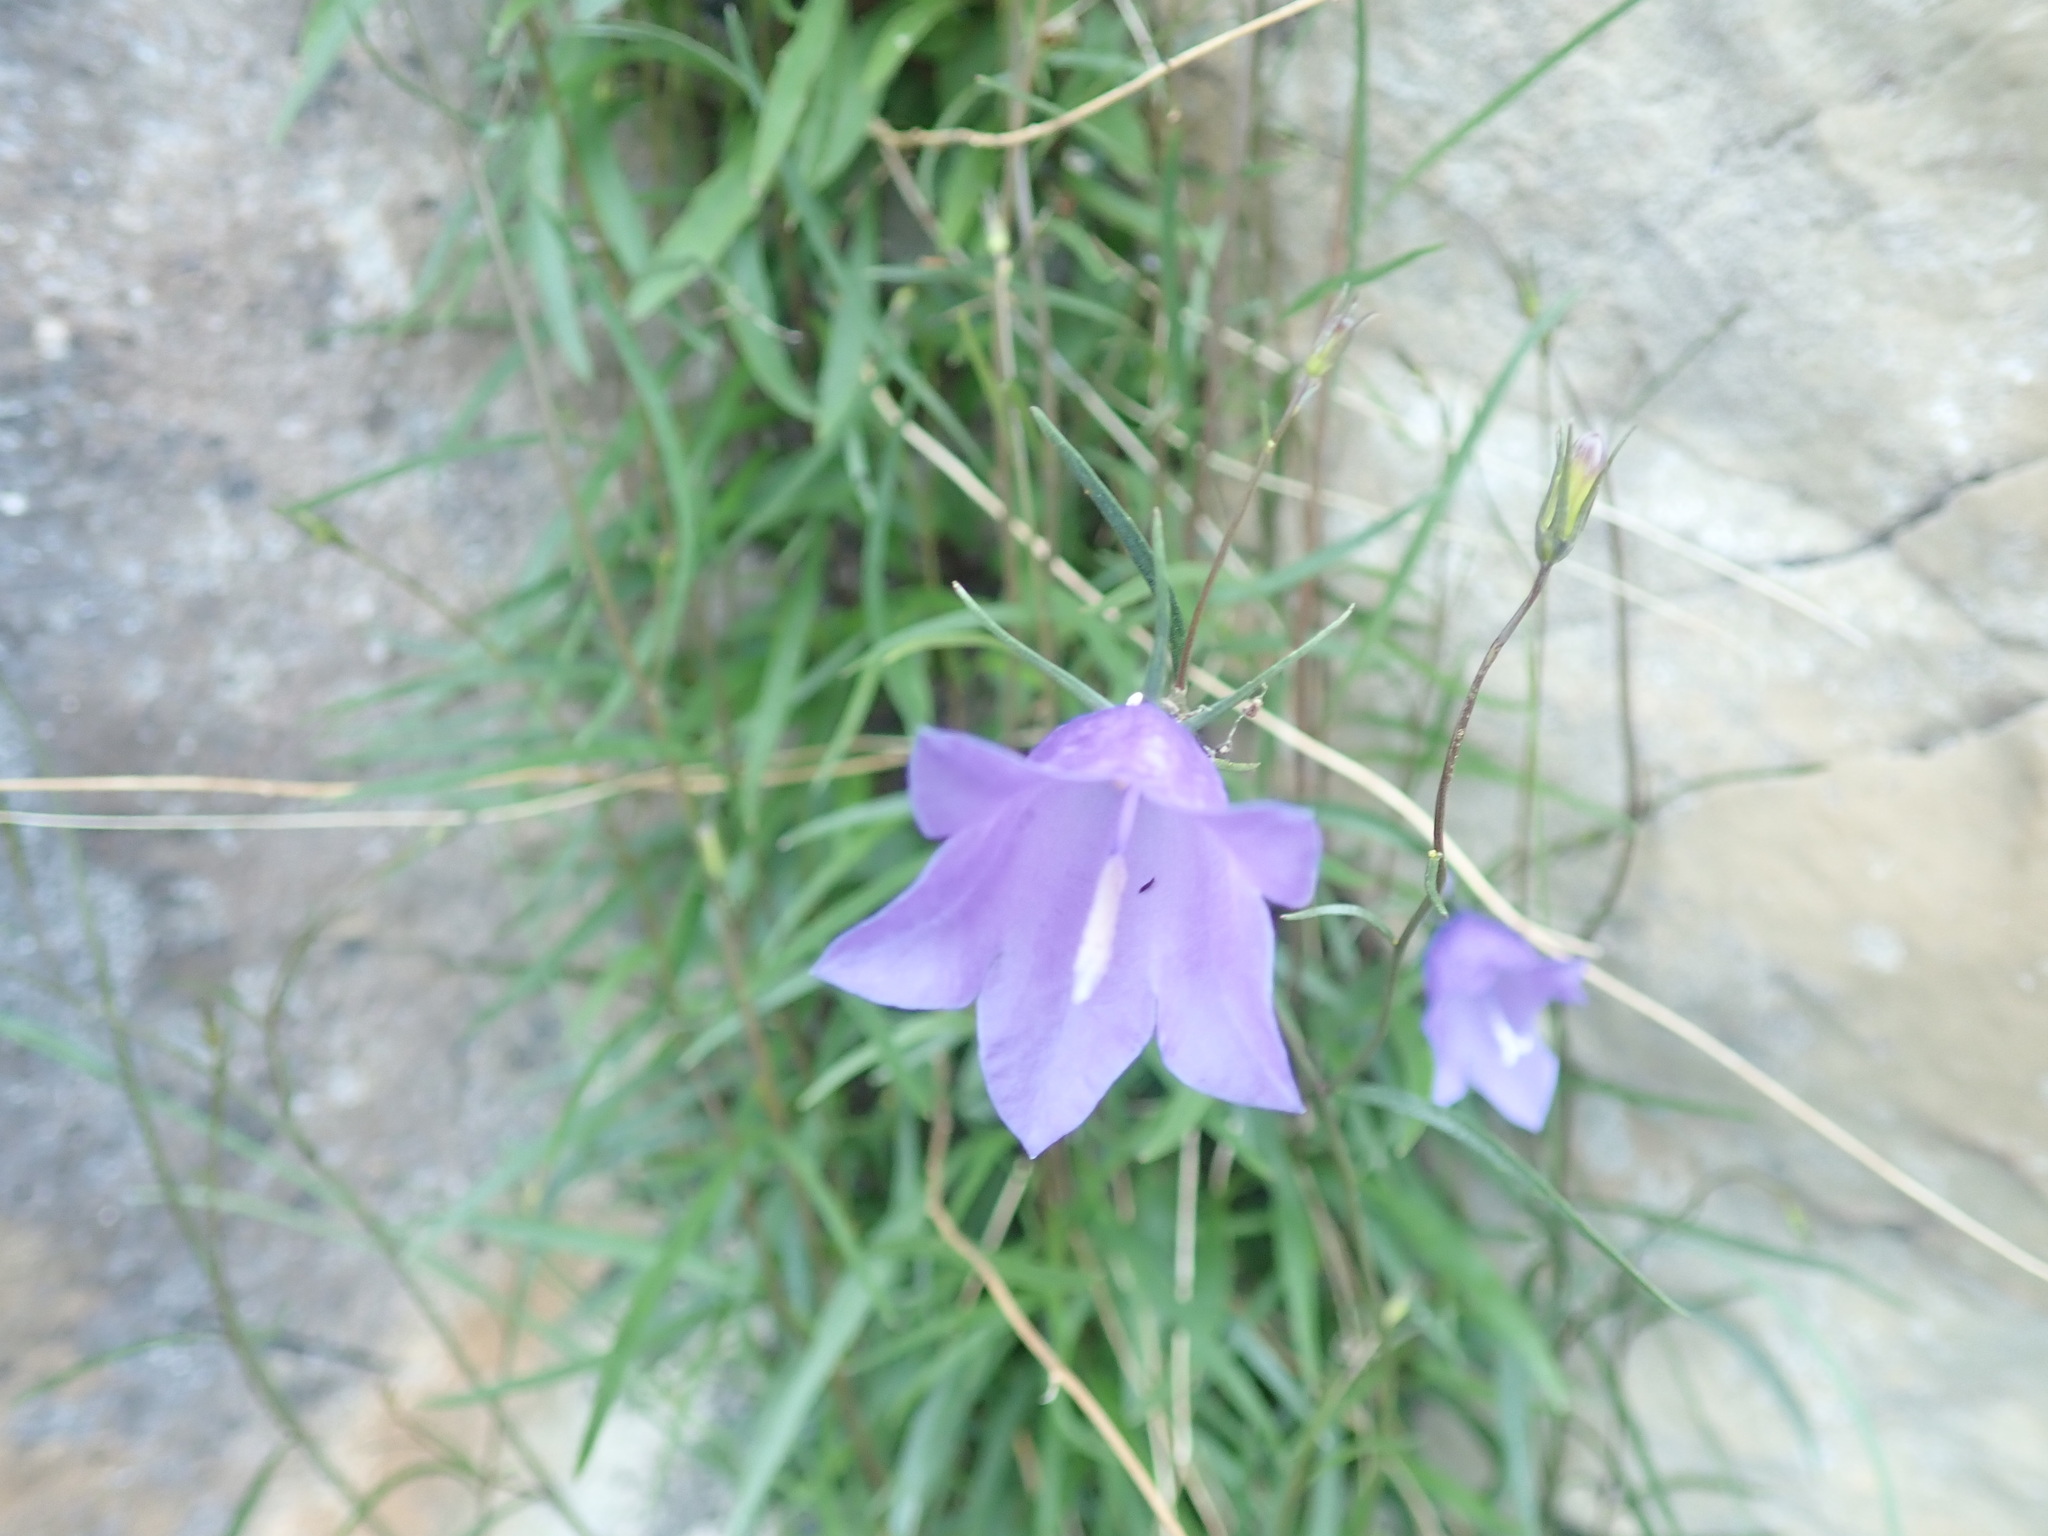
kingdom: Plantae
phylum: Tracheophyta
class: Magnoliopsida
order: Asterales
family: Campanulaceae
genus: Campanula
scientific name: Campanula alaskana
